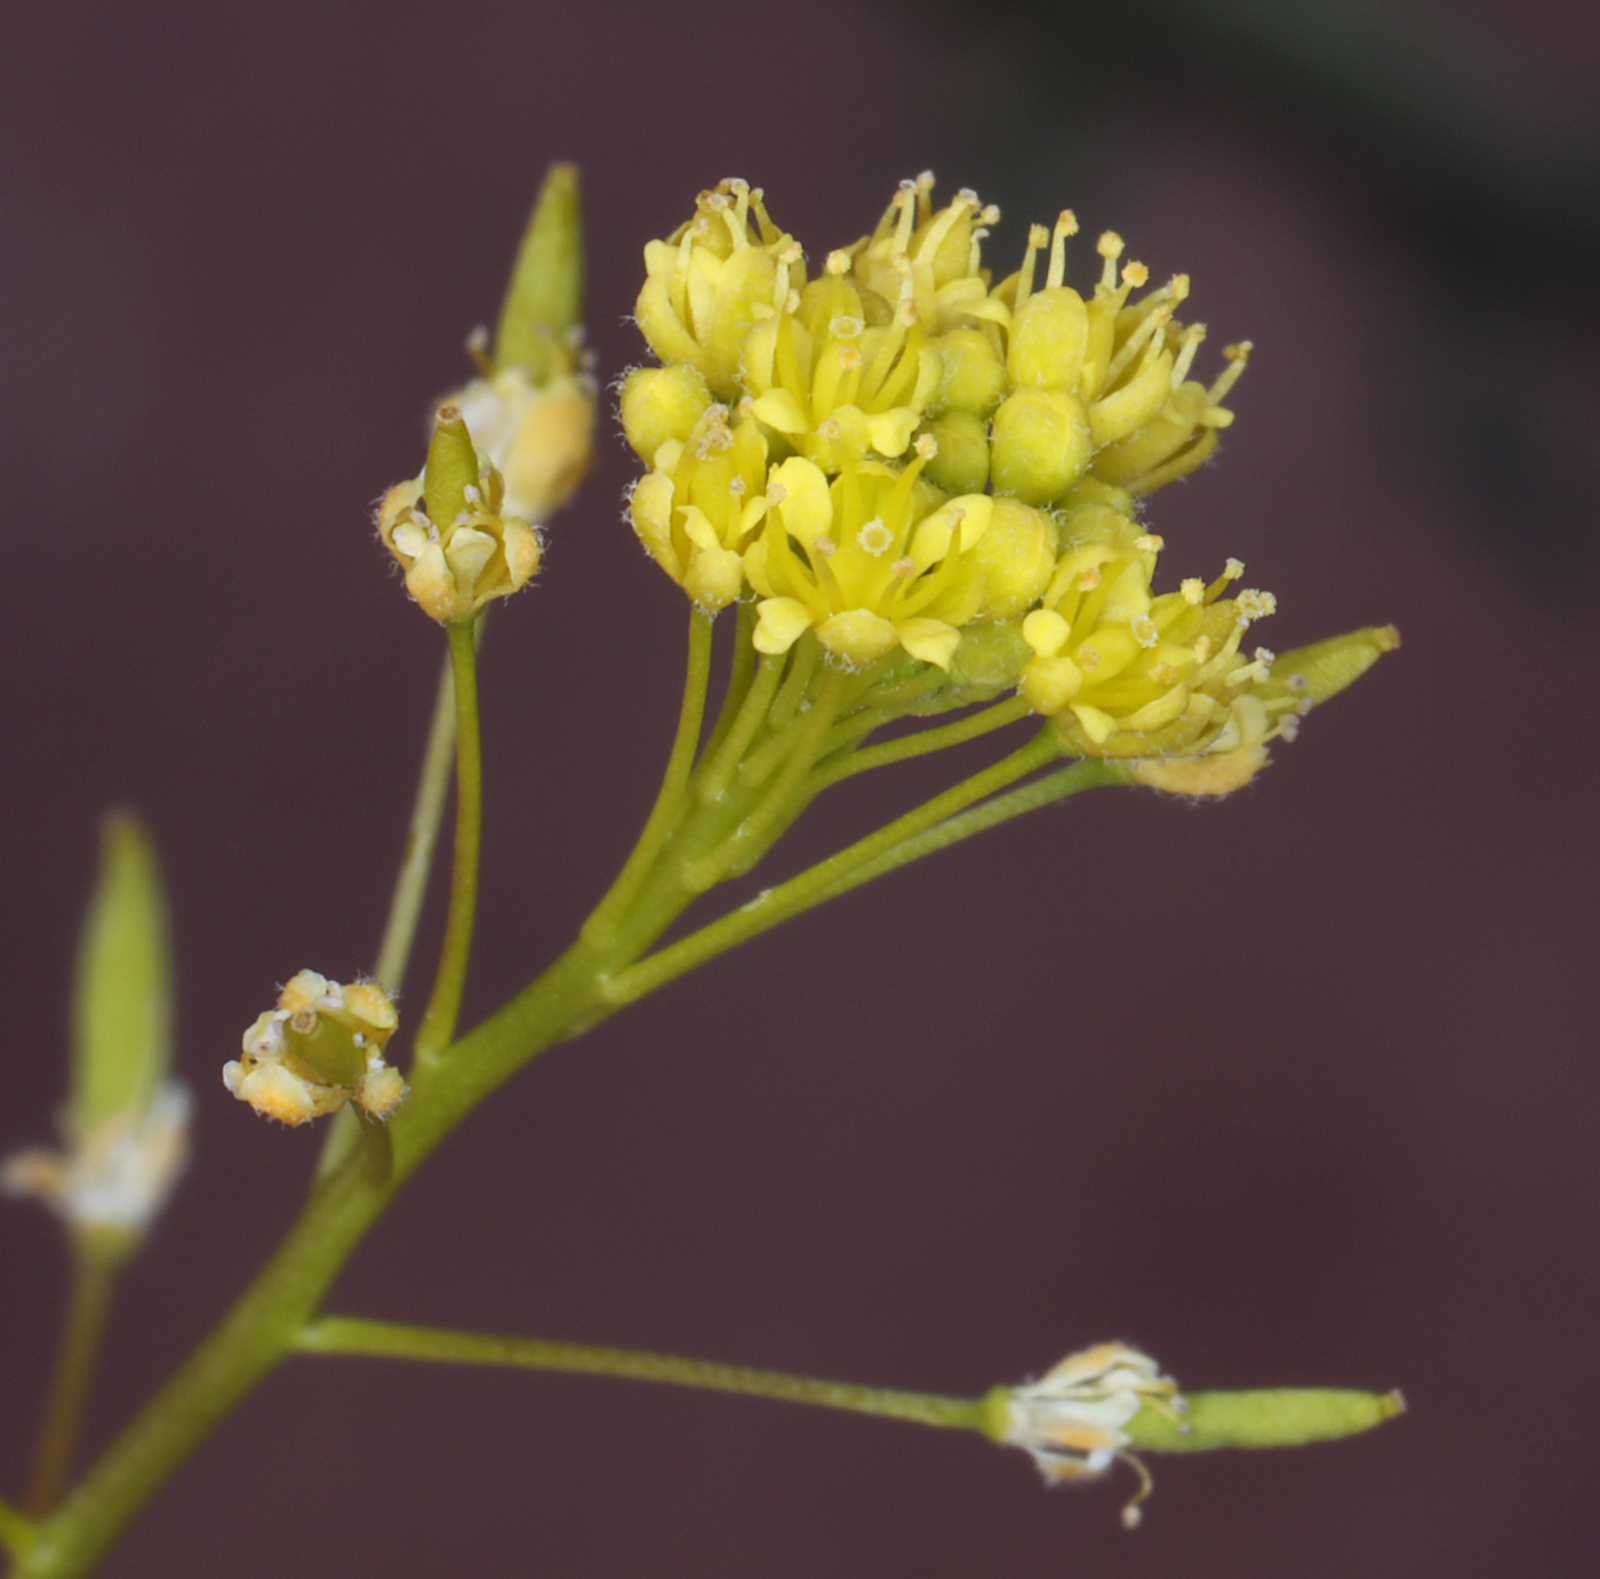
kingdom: Plantae
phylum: Tracheophyta
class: Magnoliopsida
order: Brassicales
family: Brassicaceae
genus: Descurainia
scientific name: Descurainia pinnata
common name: Western tansy mustard
